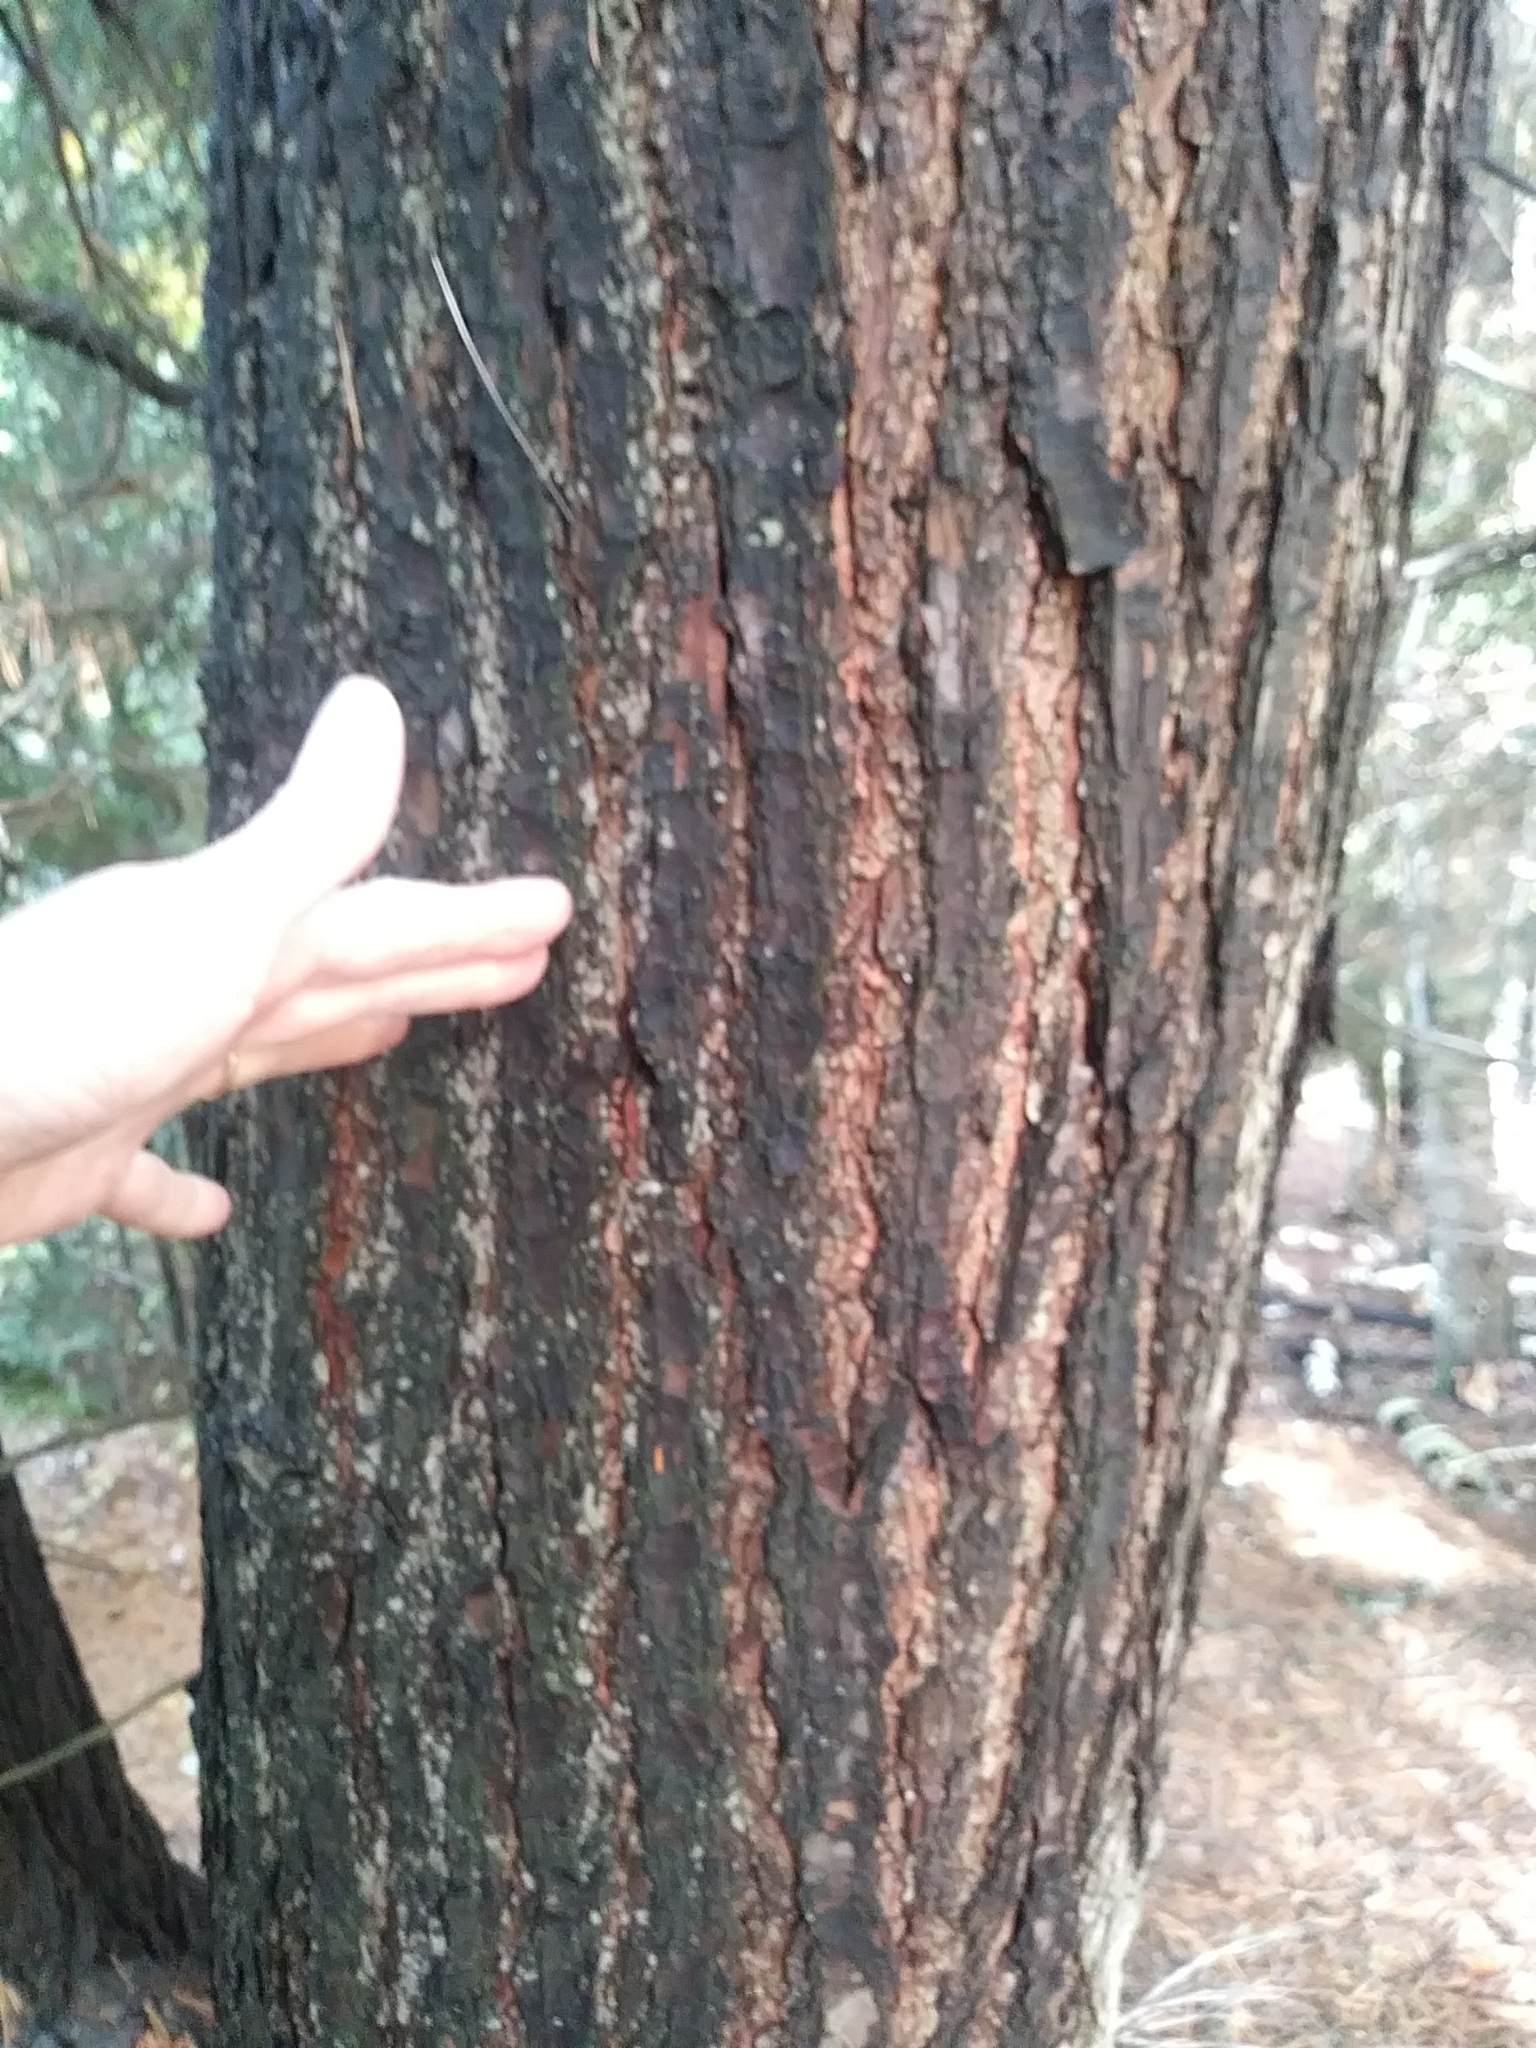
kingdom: Plantae
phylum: Tracheophyta
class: Pinopsida
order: Pinales
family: Pinaceae
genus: Tsuga
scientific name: Tsuga canadensis
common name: Eastern hemlock
